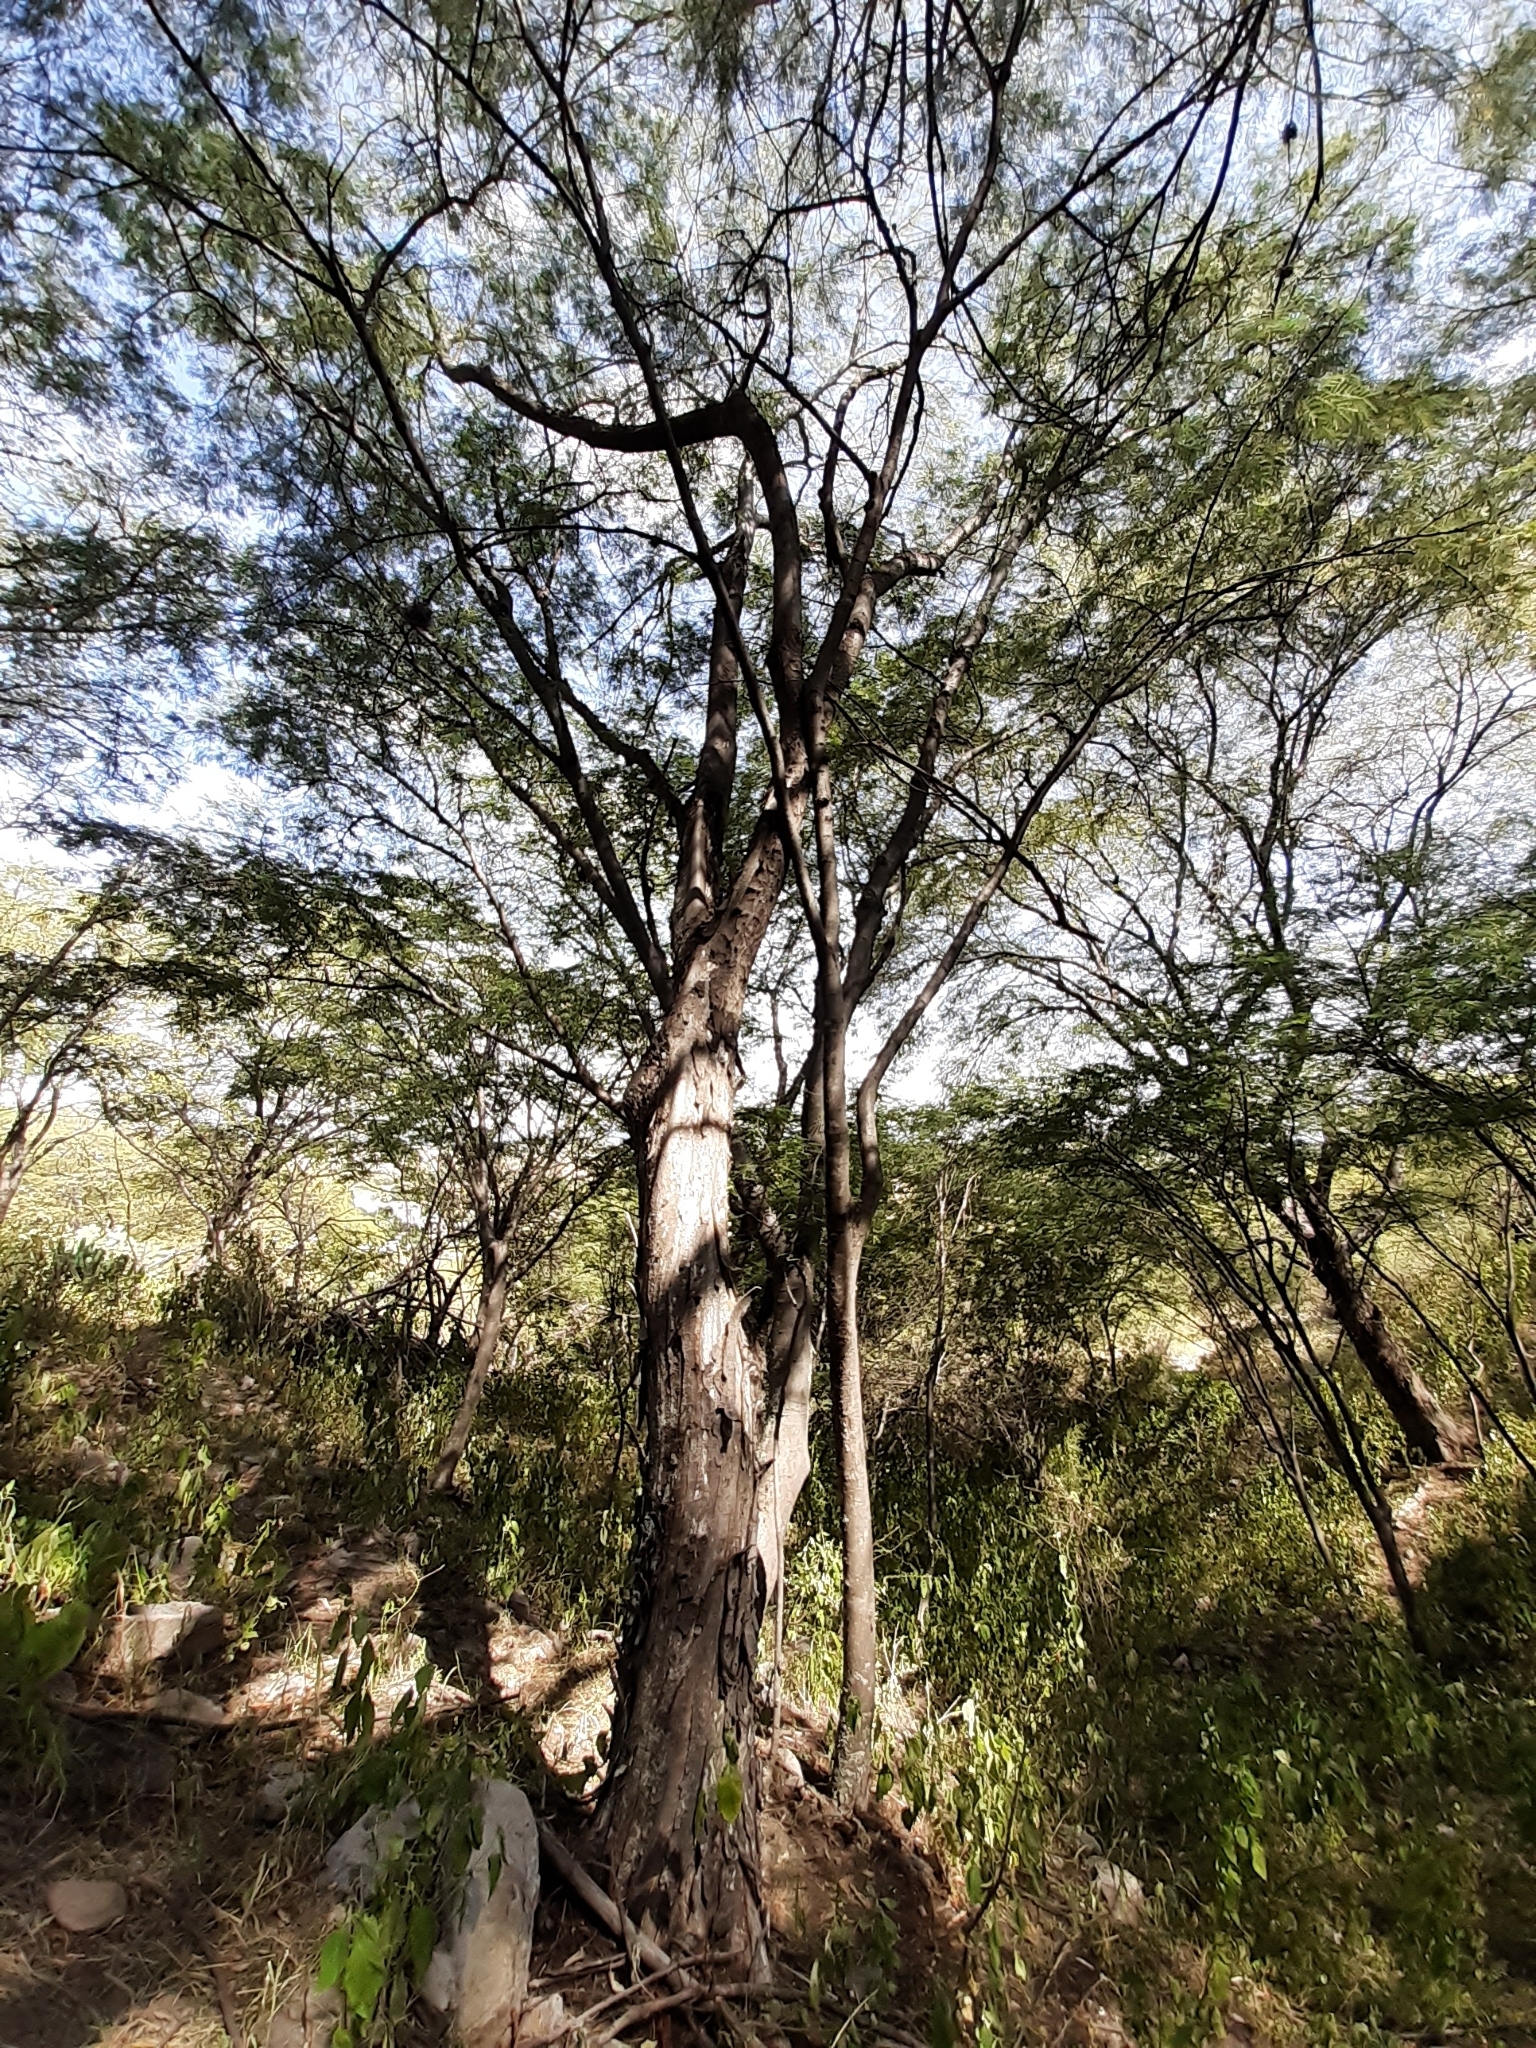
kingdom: Plantae
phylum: Tracheophyta
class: Magnoliopsida
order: Fabales
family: Fabaceae
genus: Lysiloma
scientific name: Lysiloma divaricatum
